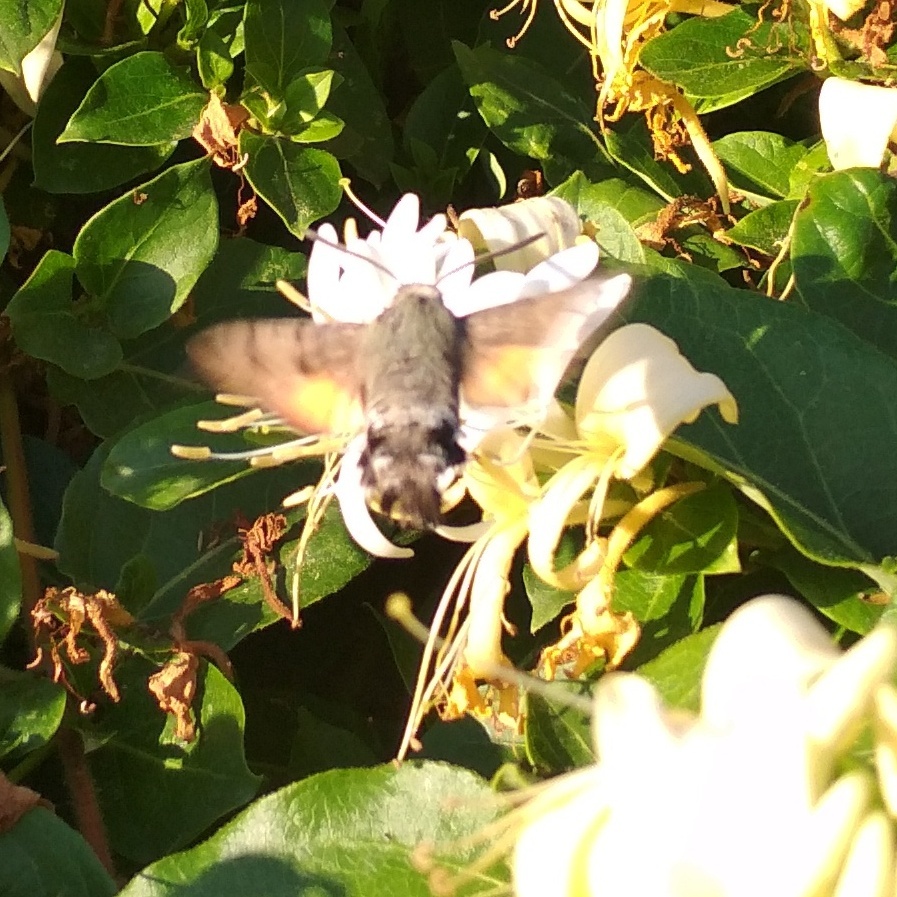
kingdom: Animalia
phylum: Arthropoda
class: Insecta
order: Lepidoptera
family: Sphingidae
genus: Macroglossum
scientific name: Macroglossum stellatarum
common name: Humming-bird hawk-moth
